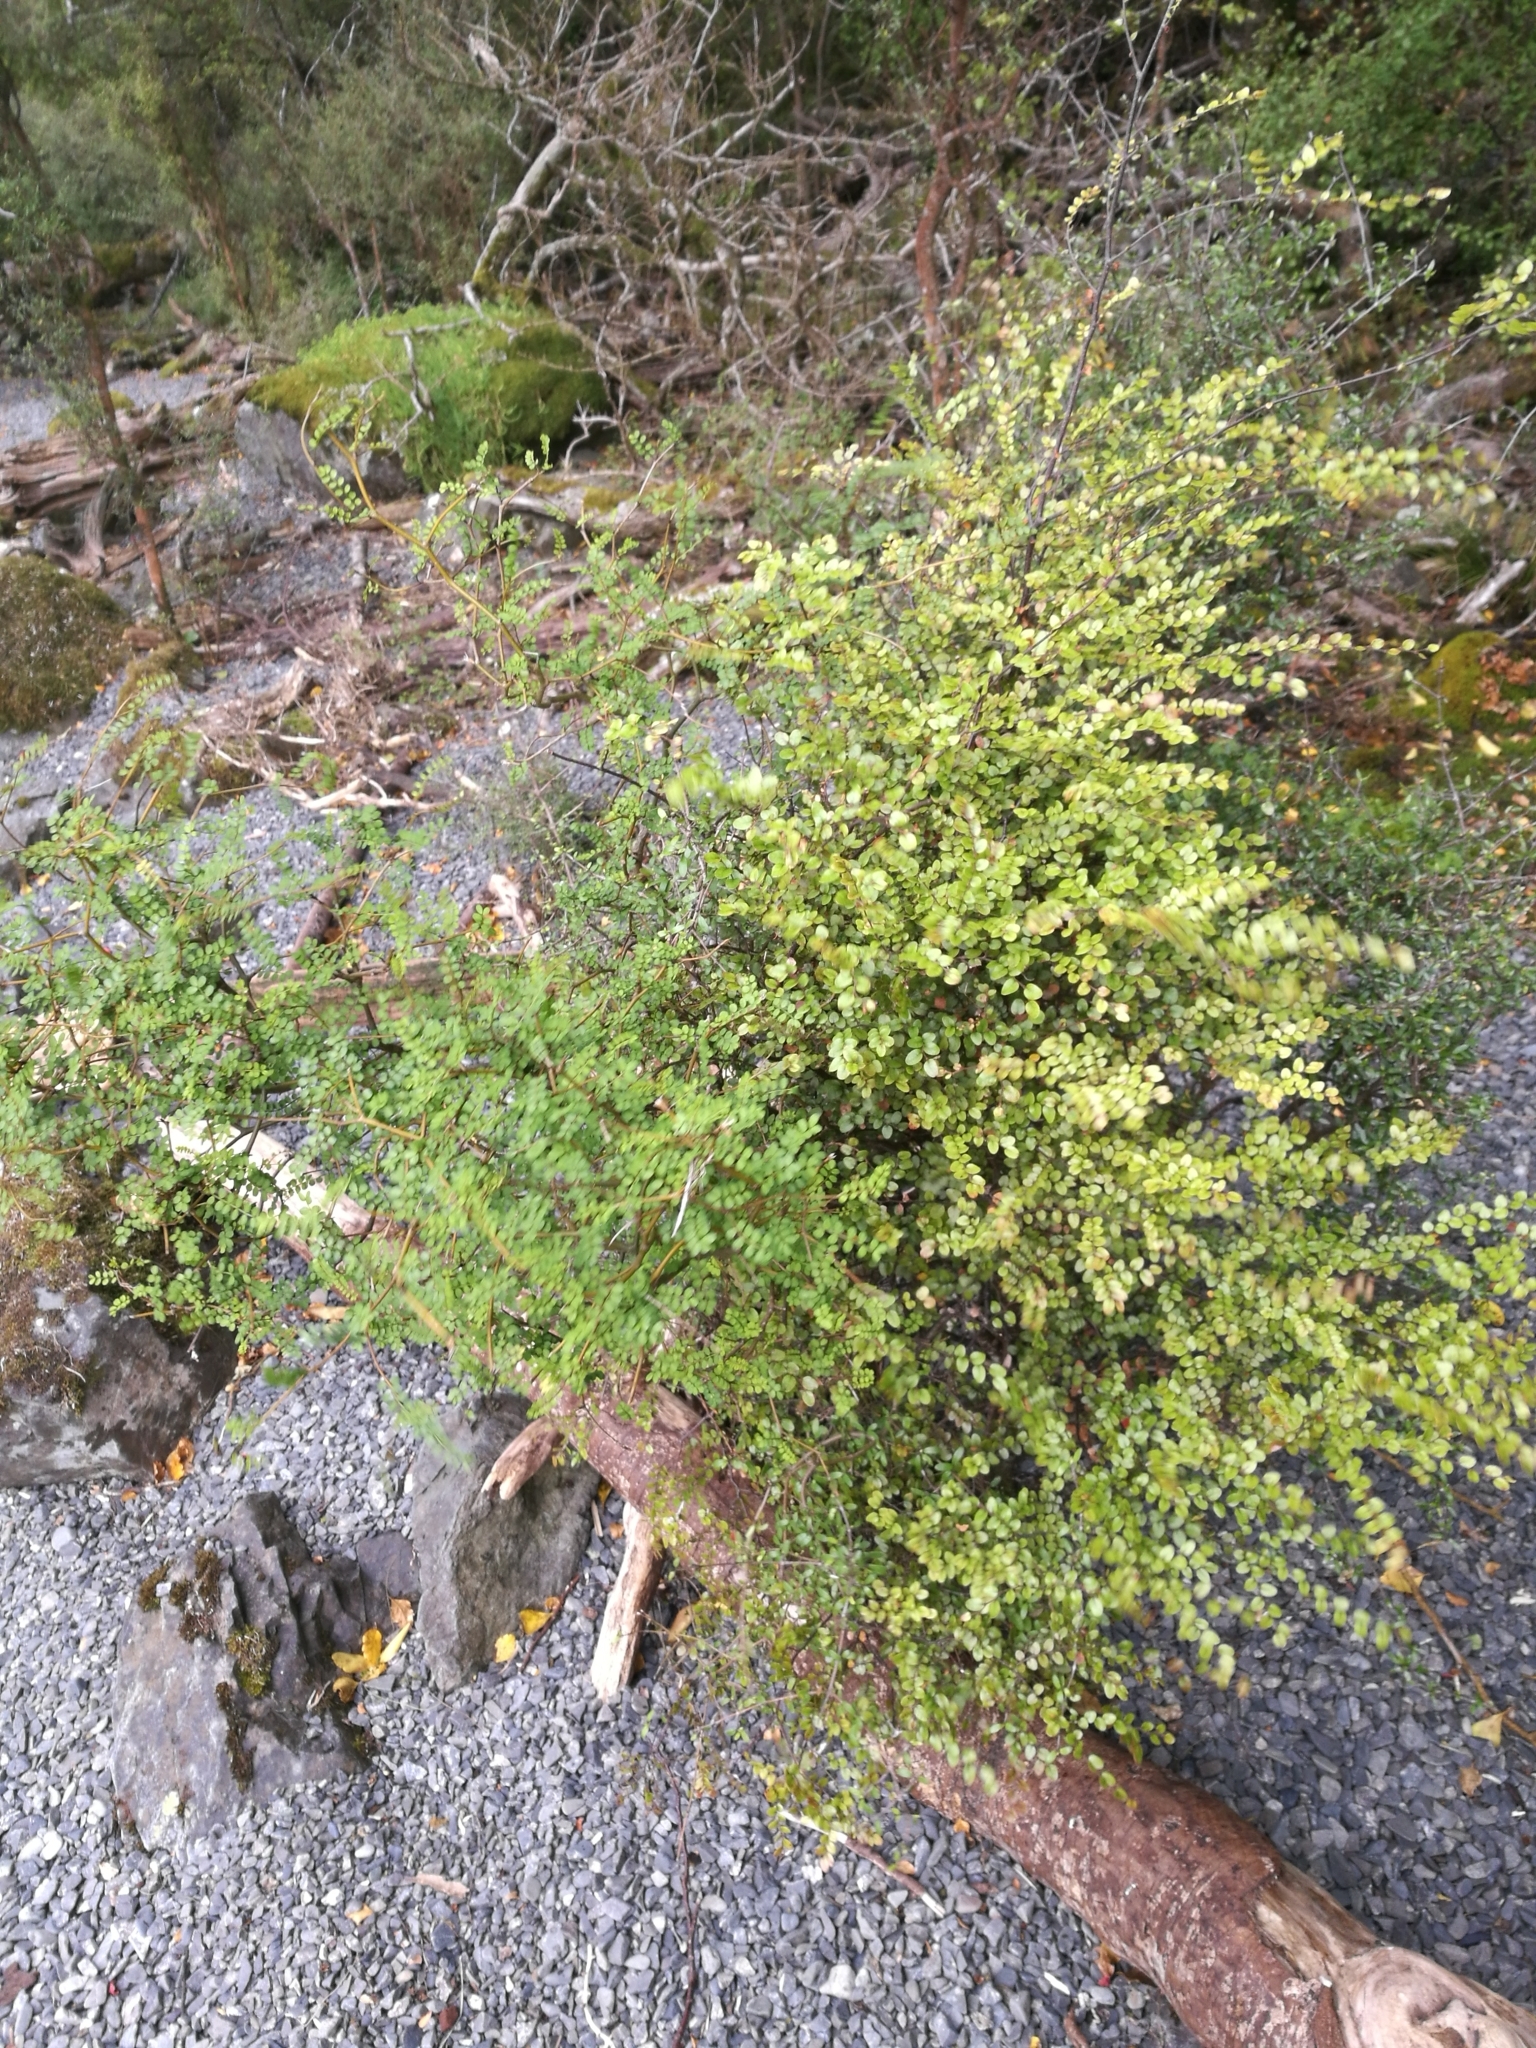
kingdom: Plantae
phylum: Tracheophyta
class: Magnoliopsida
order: Fabales
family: Fabaceae
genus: Sophora
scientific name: Sophora microphylla
